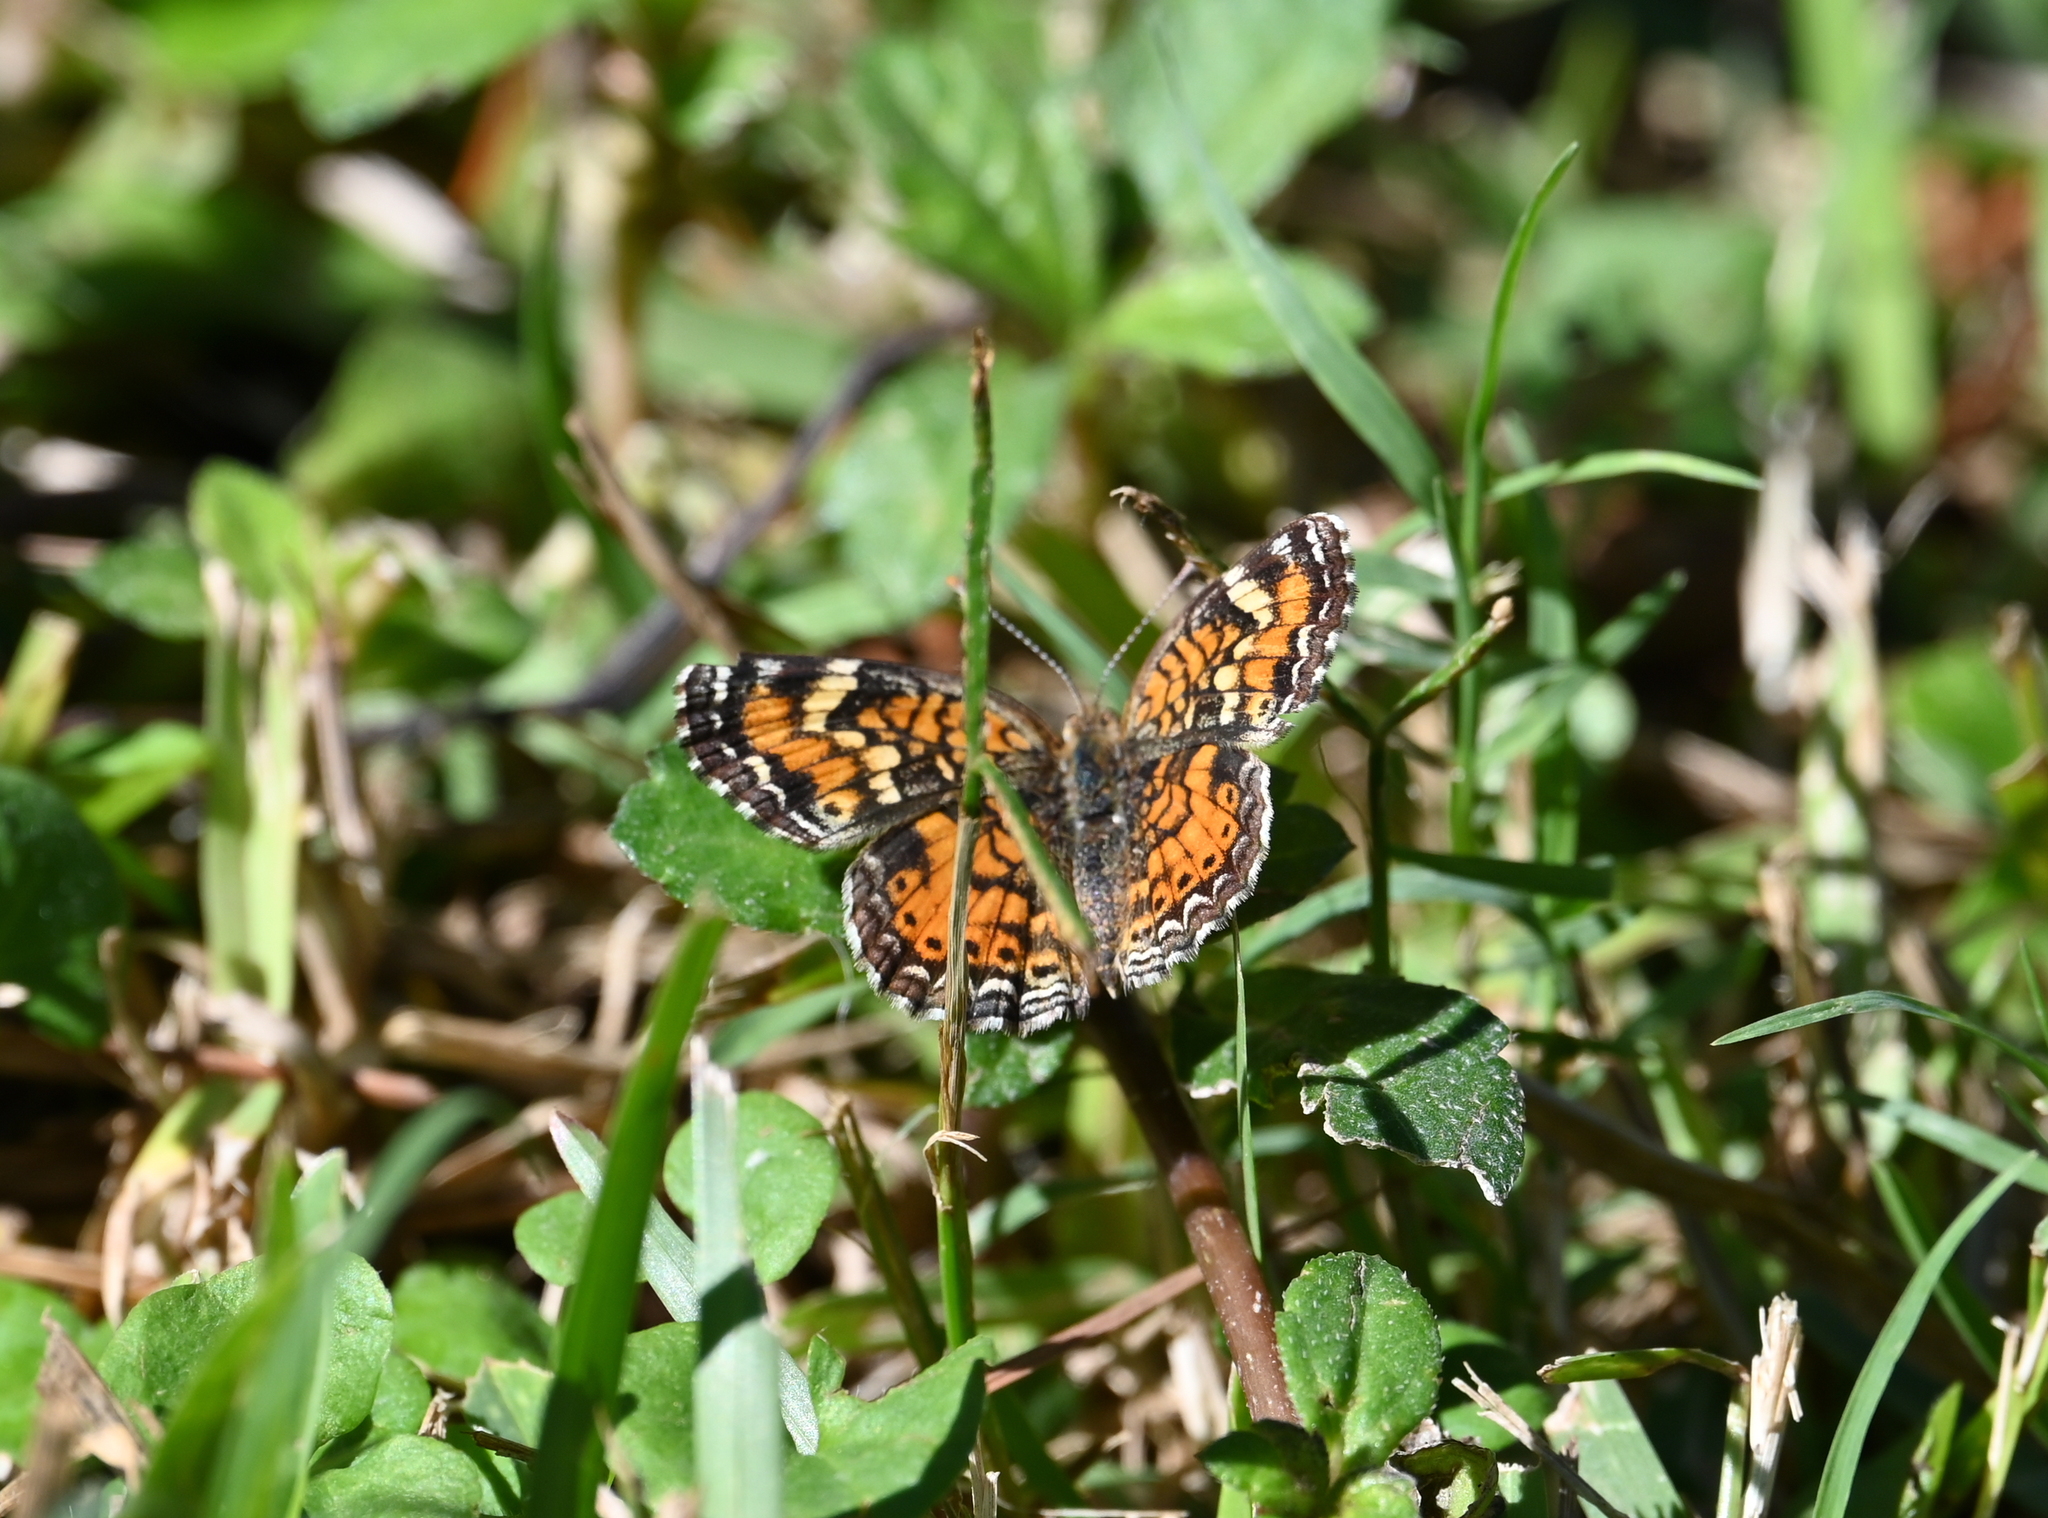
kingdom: Animalia
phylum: Arthropoda
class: Insecta
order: Lepidoptera
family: Nymphalidae
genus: Phyciodes
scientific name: Phyciodes phaon
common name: Phaon crescent
